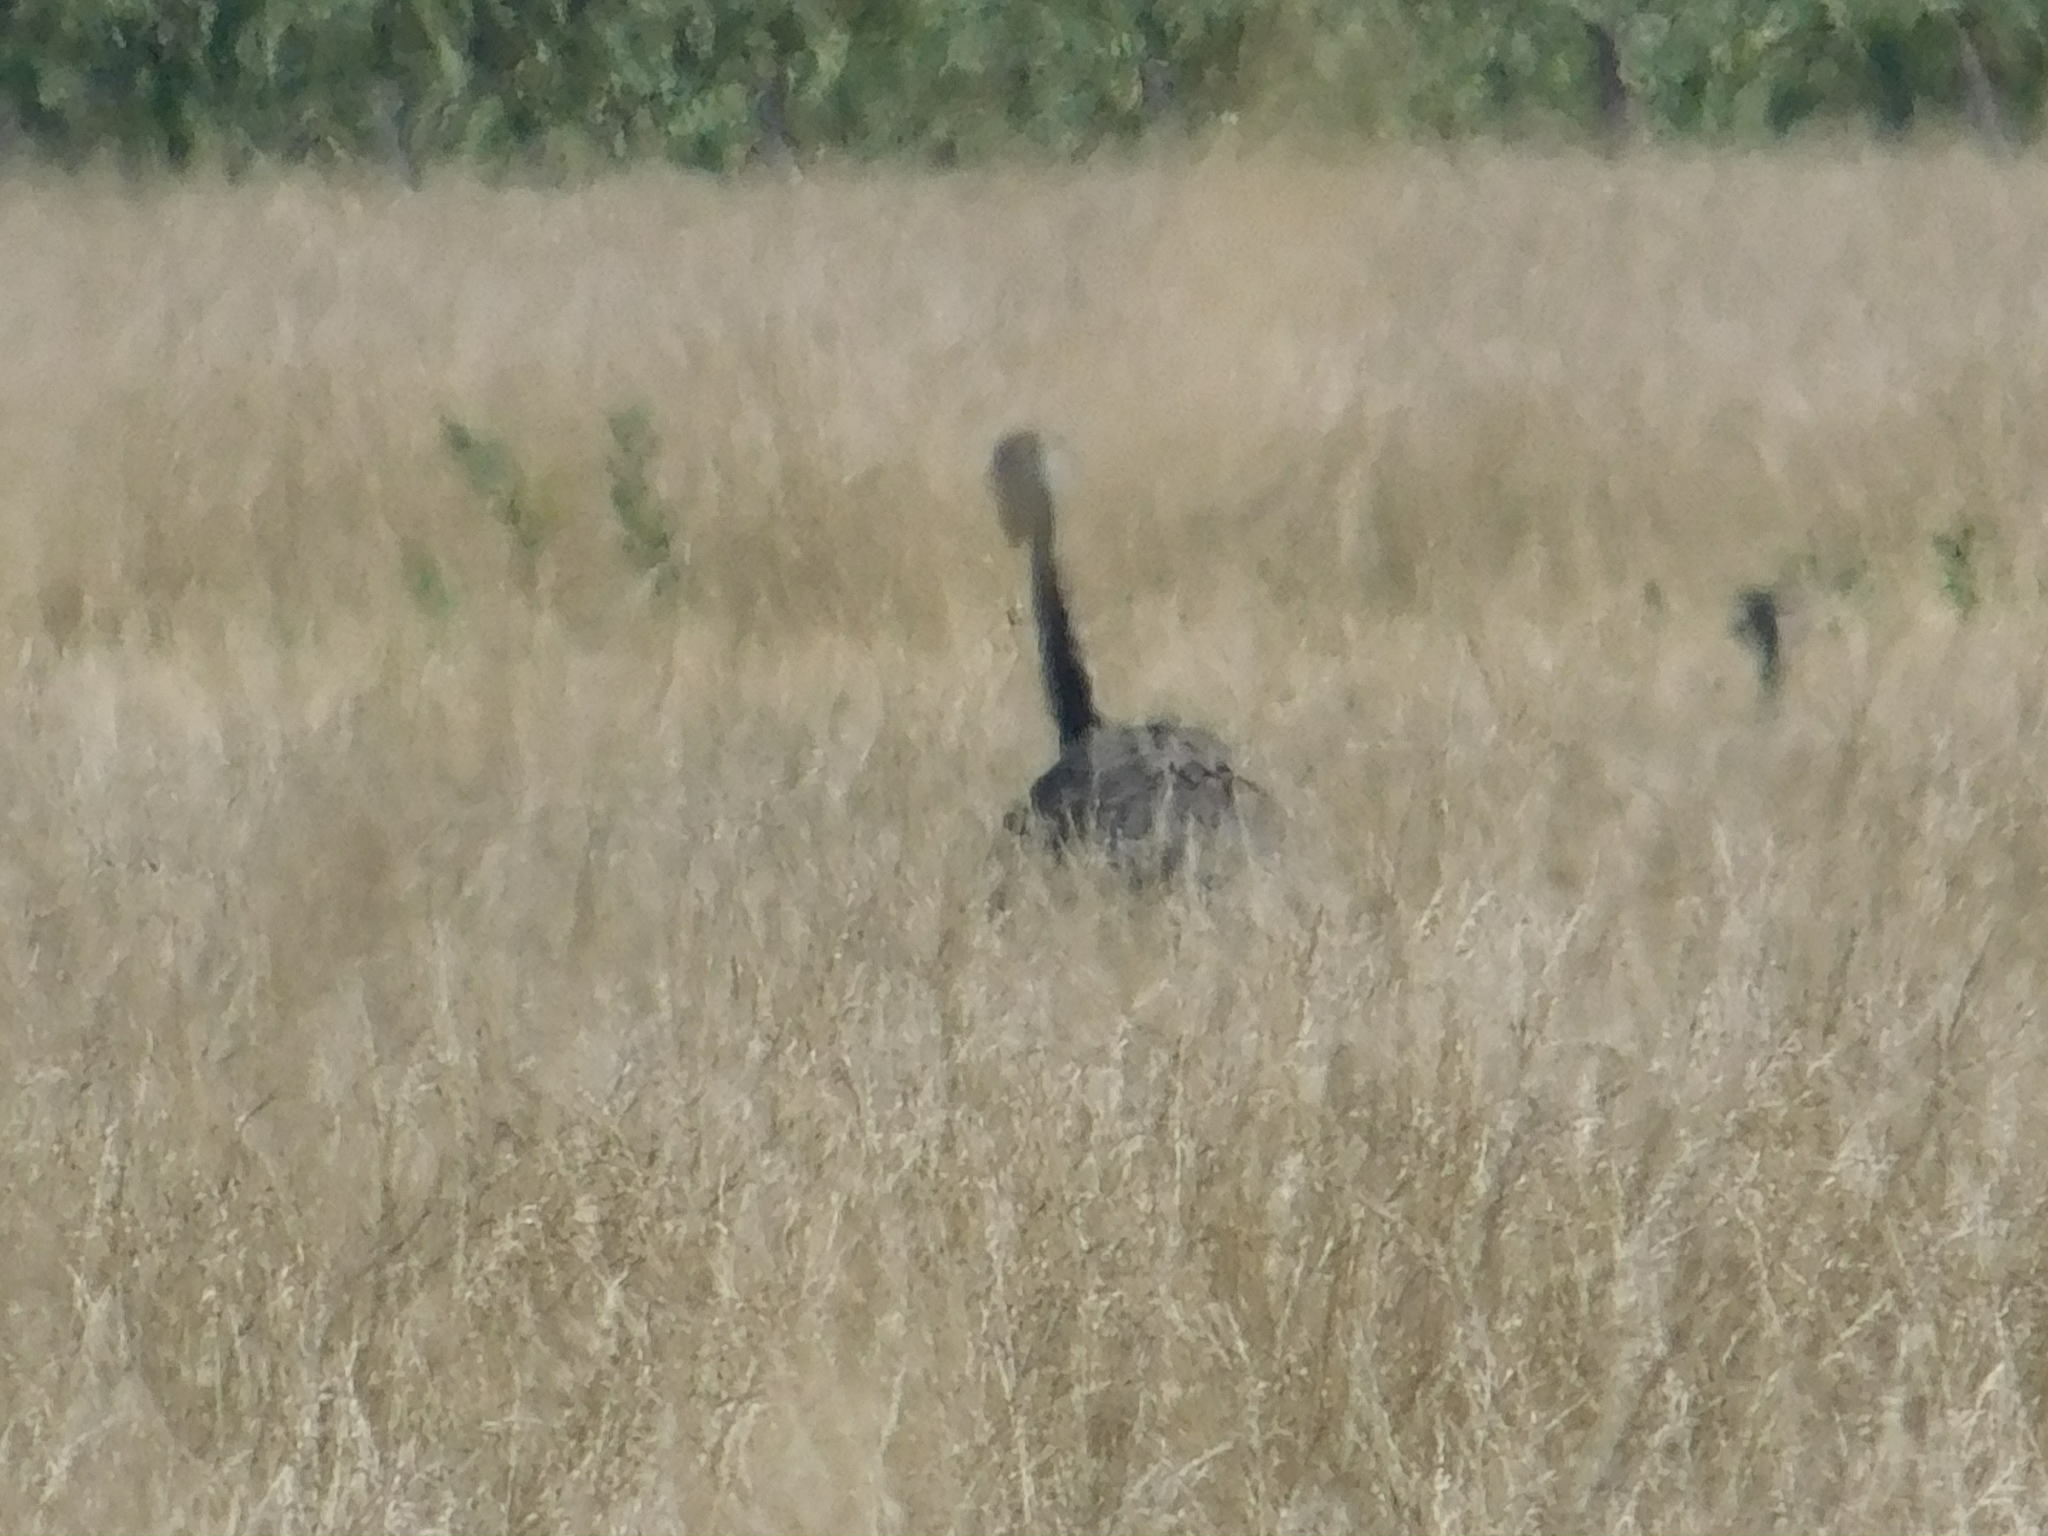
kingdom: Animalia
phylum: Chordata
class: Aves
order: Rheiformes
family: Rheidae
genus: Rhea
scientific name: Rhea americana
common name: Greater rhea
